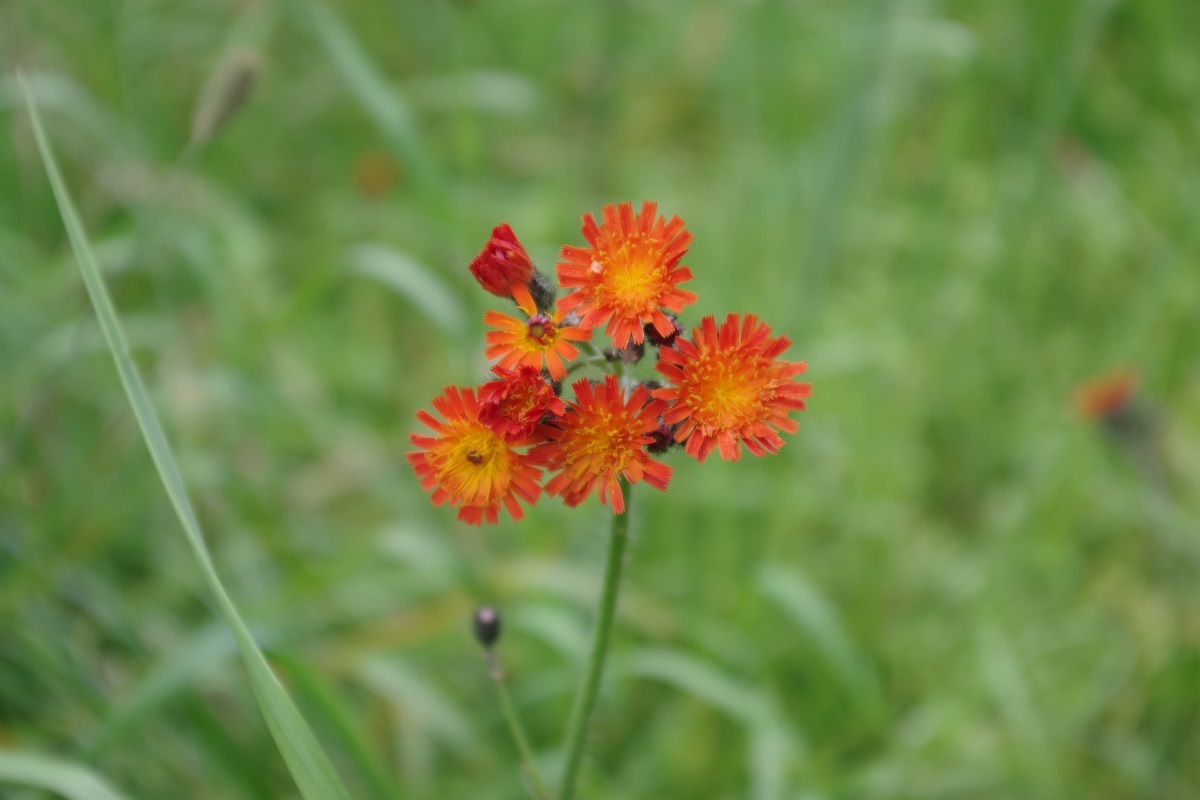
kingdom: Plantae
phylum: Tracheophyta
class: Magnoliopsida
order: Asterales
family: Asteraceae
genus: Pilosella
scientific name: Pilosella aurantiaca
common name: Fox-and-cubs
